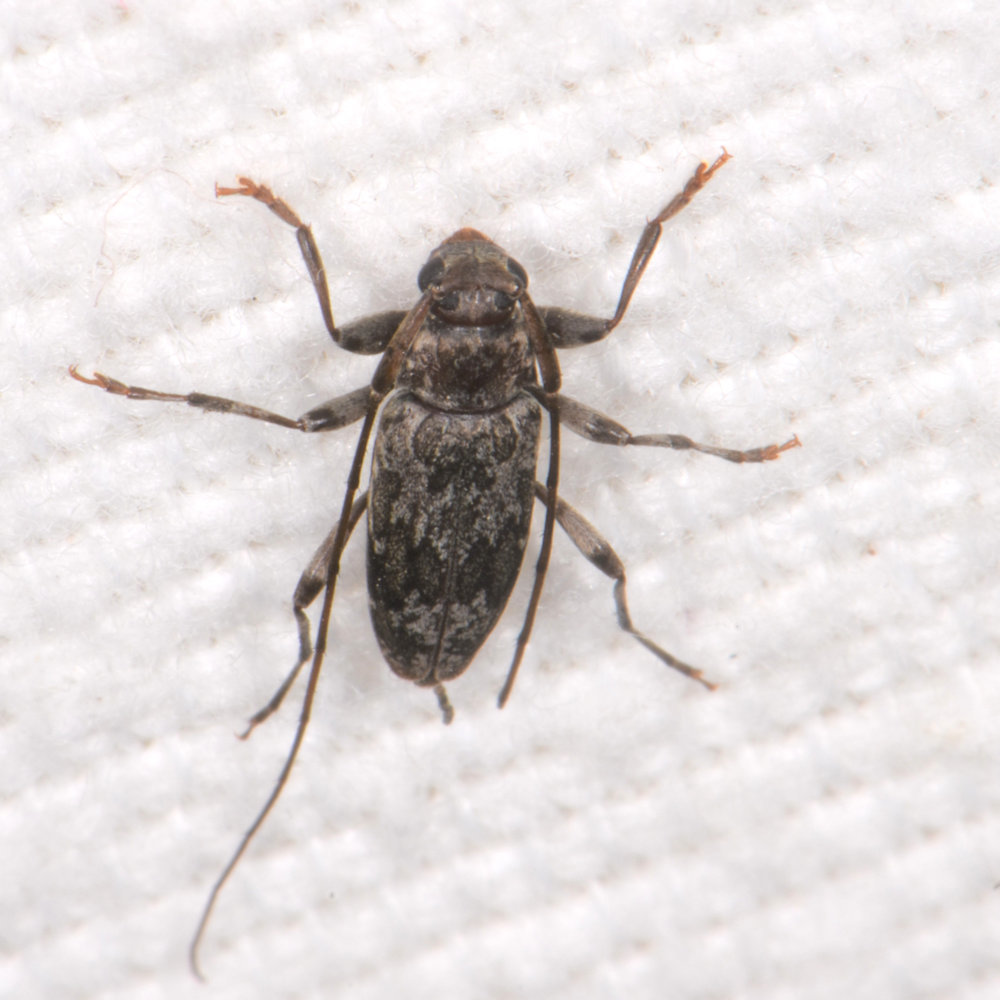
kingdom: Animalia
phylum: Arthropoda
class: Insecta
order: Coleoptera
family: Cerambycidae
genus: Lepturges
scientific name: Lepturges confluens
